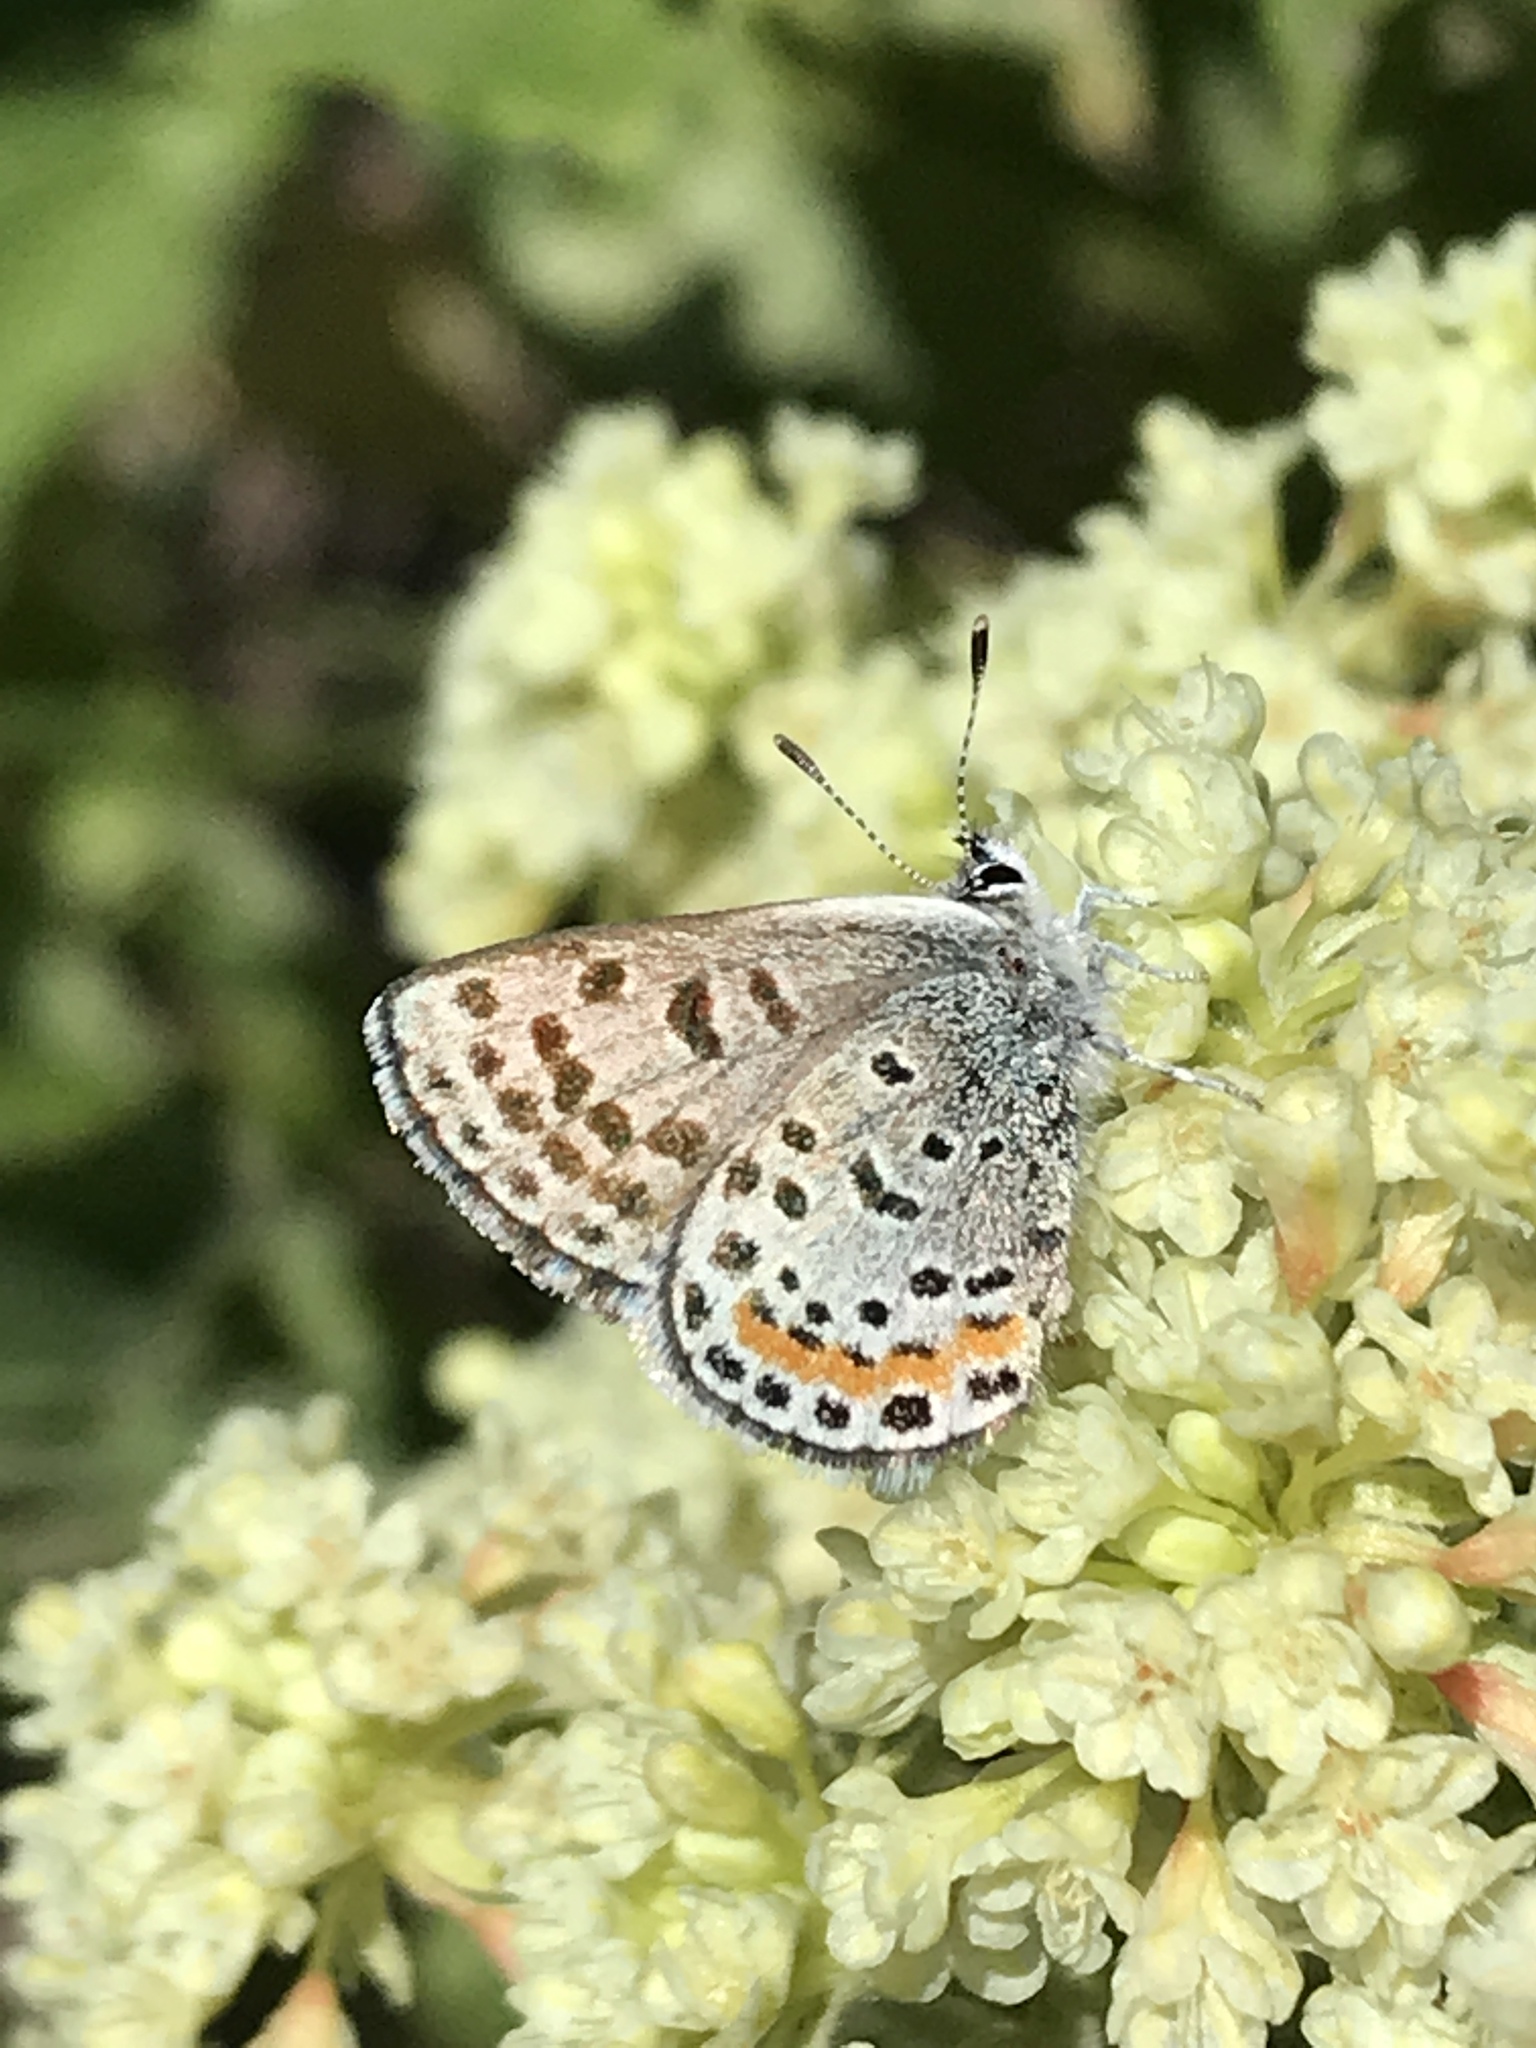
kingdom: Animalia
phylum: Arthropoda
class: Insecta
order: Lepidoptera
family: Lycaenidae
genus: Euphilotes
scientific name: Euphilotes enoptes
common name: Dotted blue
